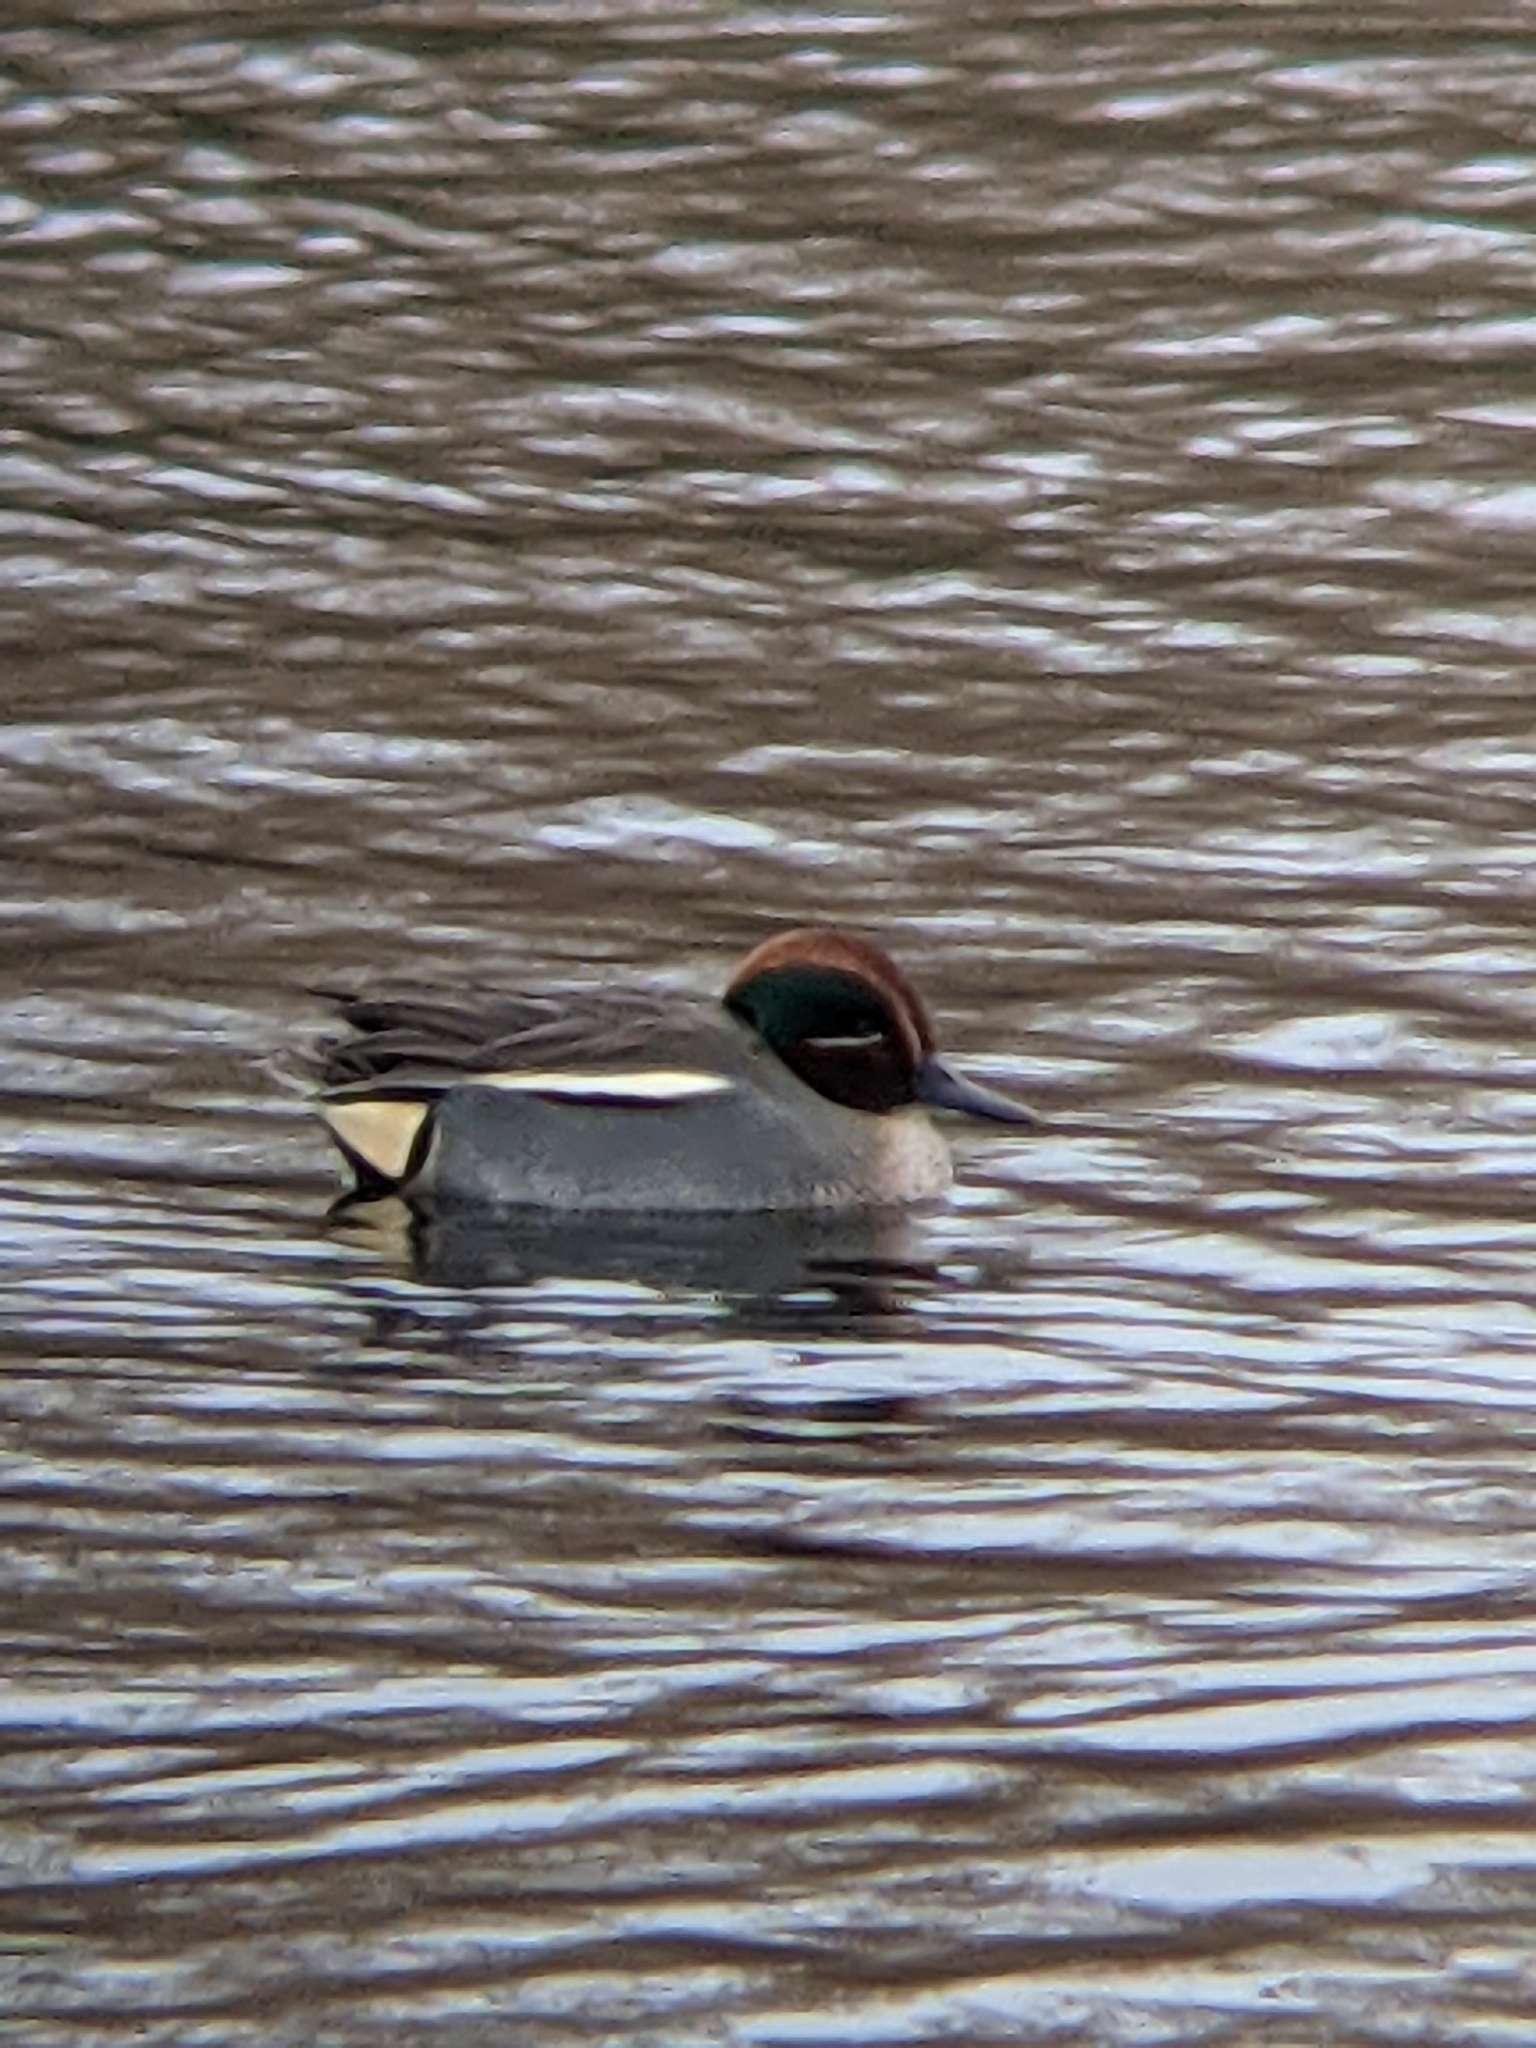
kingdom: Animalia
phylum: Chordata
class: Aves
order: Anseriformes
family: Anatidae
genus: Anas
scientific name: Anas crecca
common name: Eurasian teal
